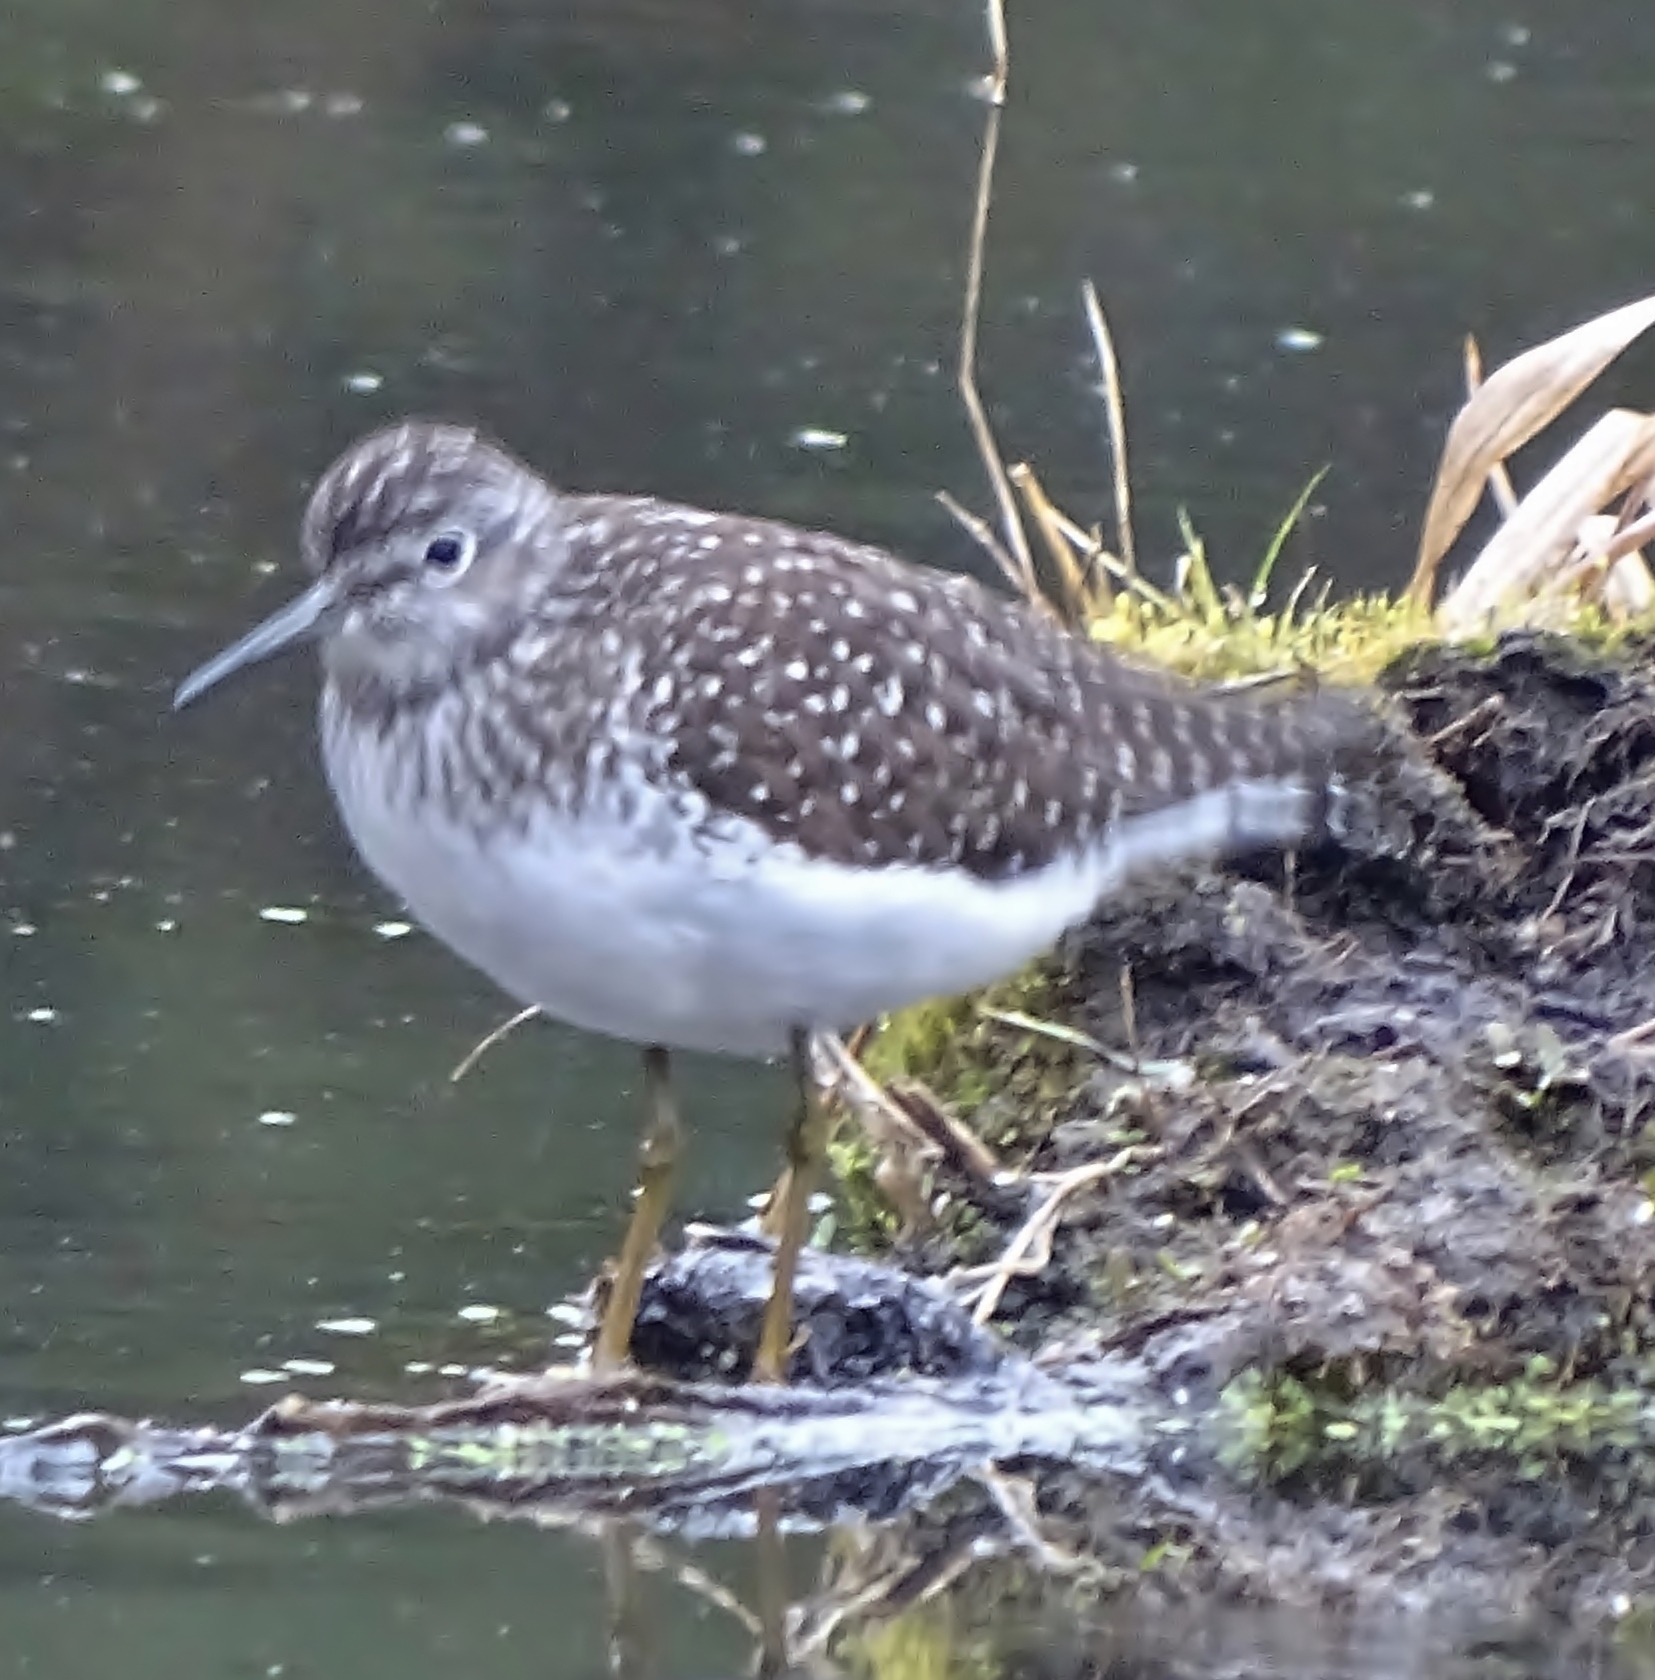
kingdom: Animalia
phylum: Chordata
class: Aves
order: Charadriiformes
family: Scolopacidae
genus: Tringa
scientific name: Tringa solitaria
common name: Solitary sandpiper
